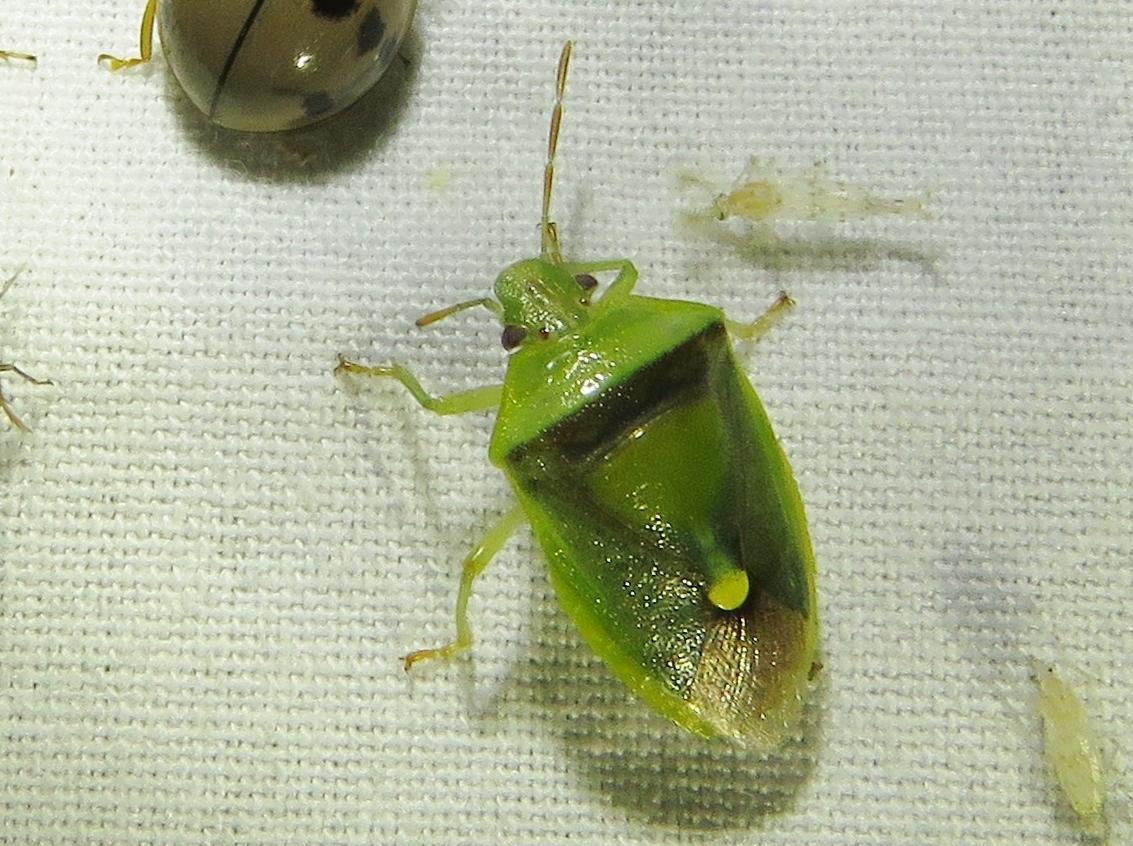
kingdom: Animalia
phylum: Arthropoda
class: Insecta
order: Hemiptera
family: Pentatomidae
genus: Banasa
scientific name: Banasa dimidiata
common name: Green burgundy stink bug
